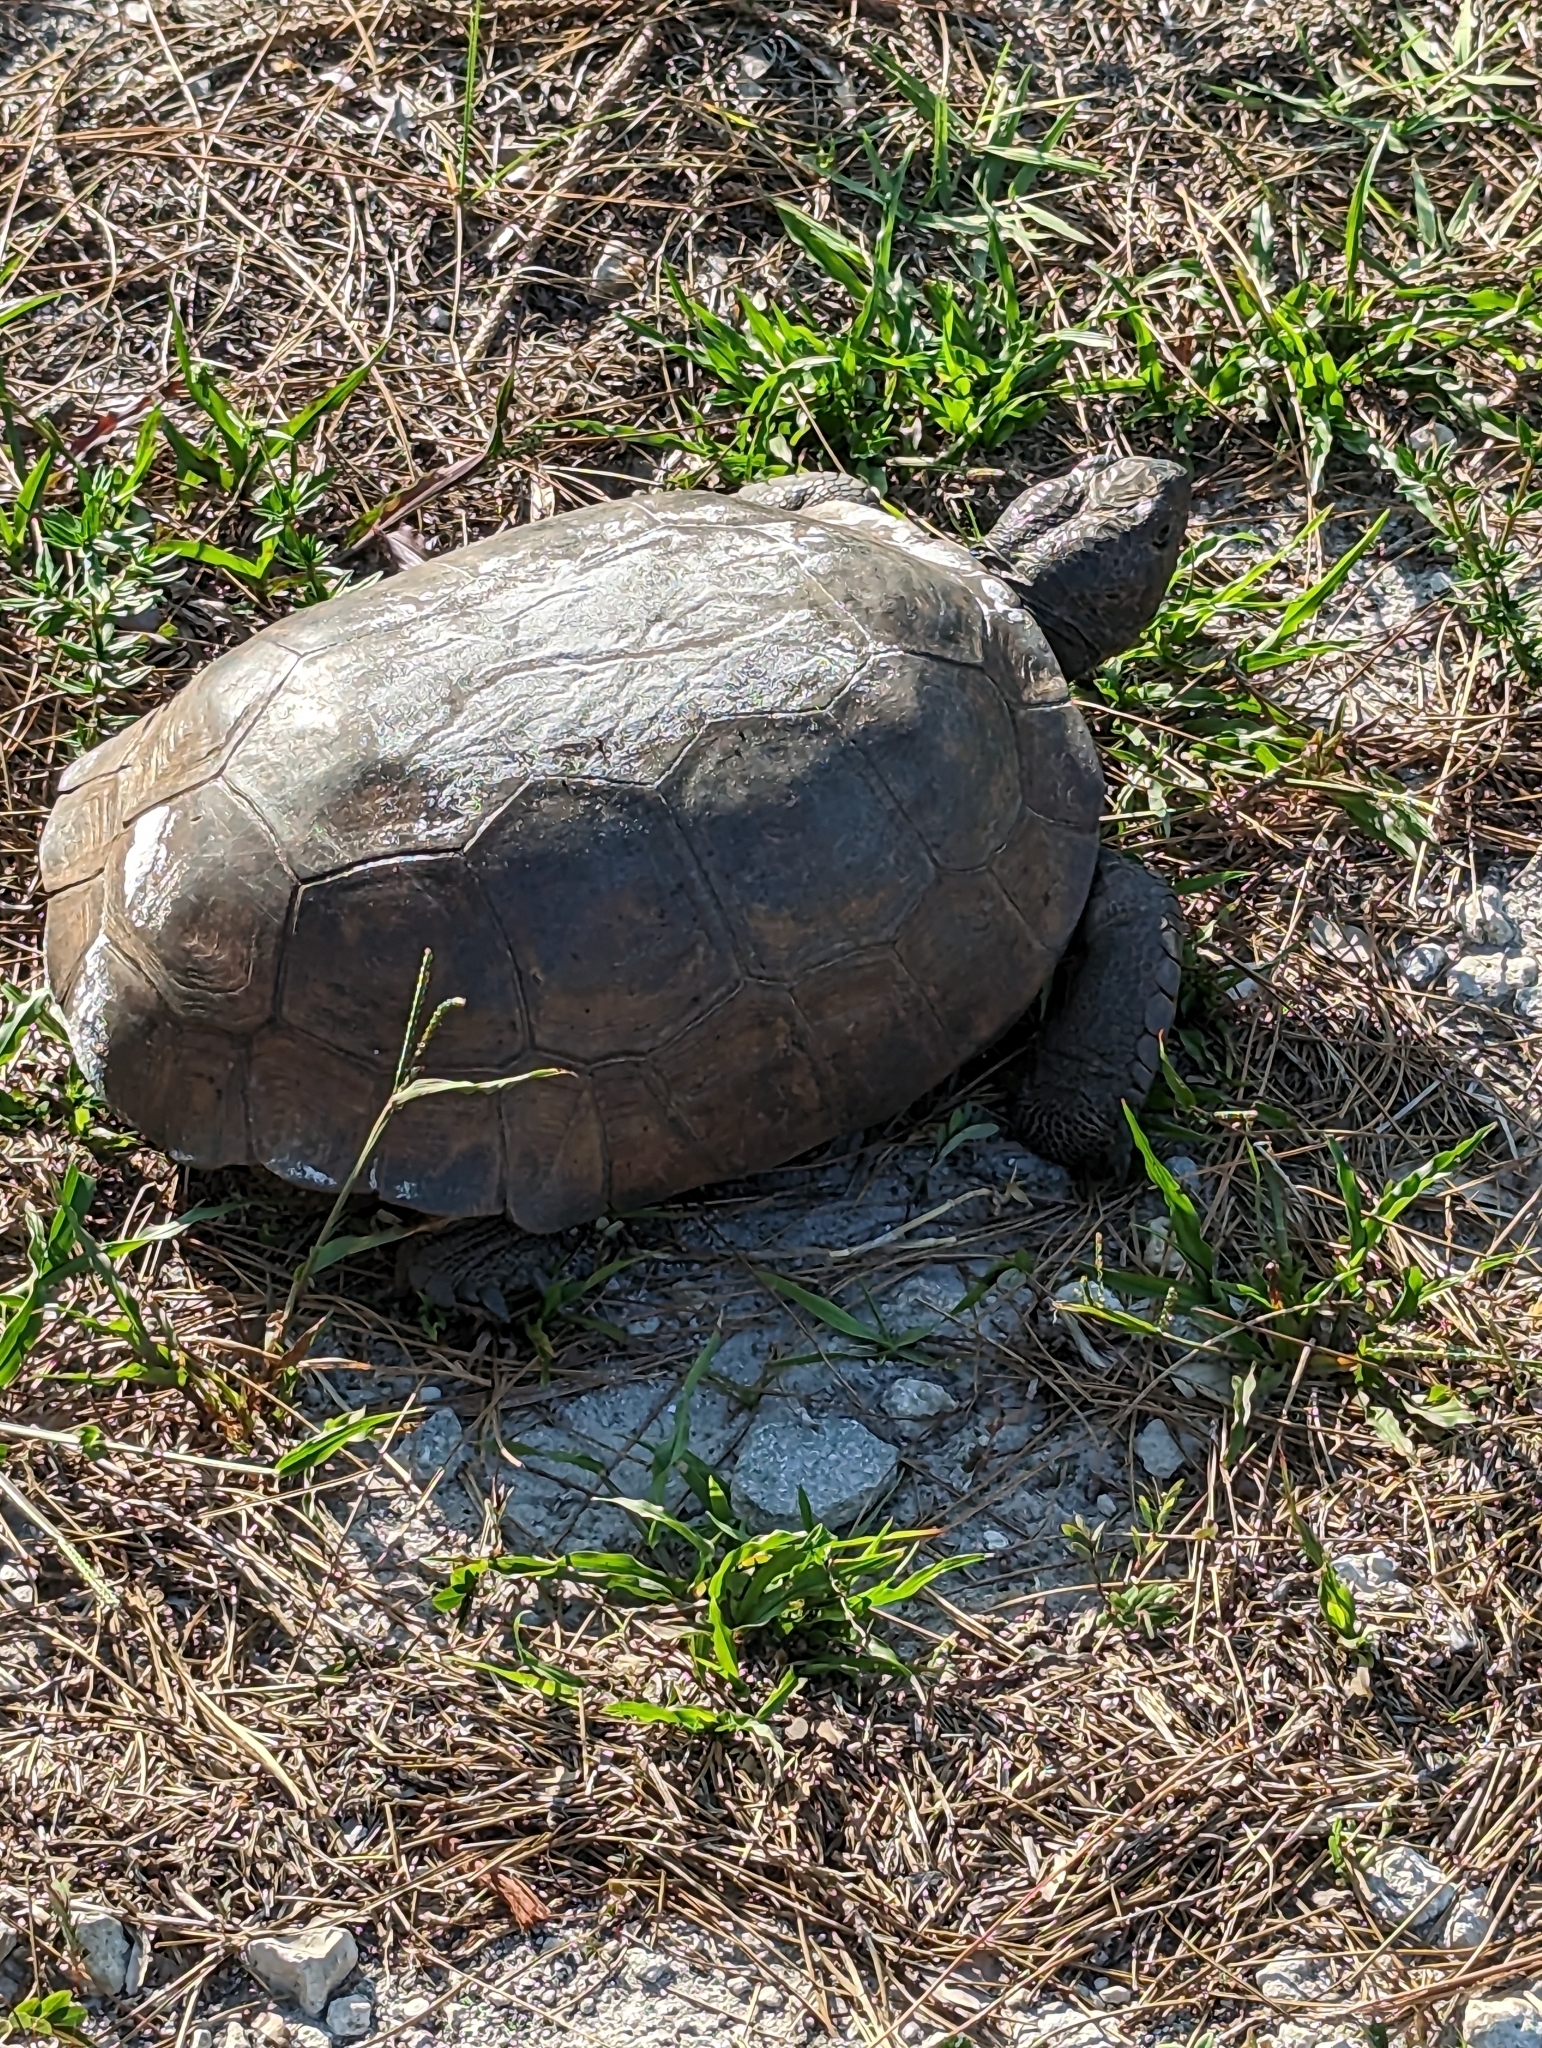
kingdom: Animalia
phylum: Chordata
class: Testudines
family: Testudinidae
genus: Gopherus
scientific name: Gopherus polyphemus
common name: Florida gopher tortoise
